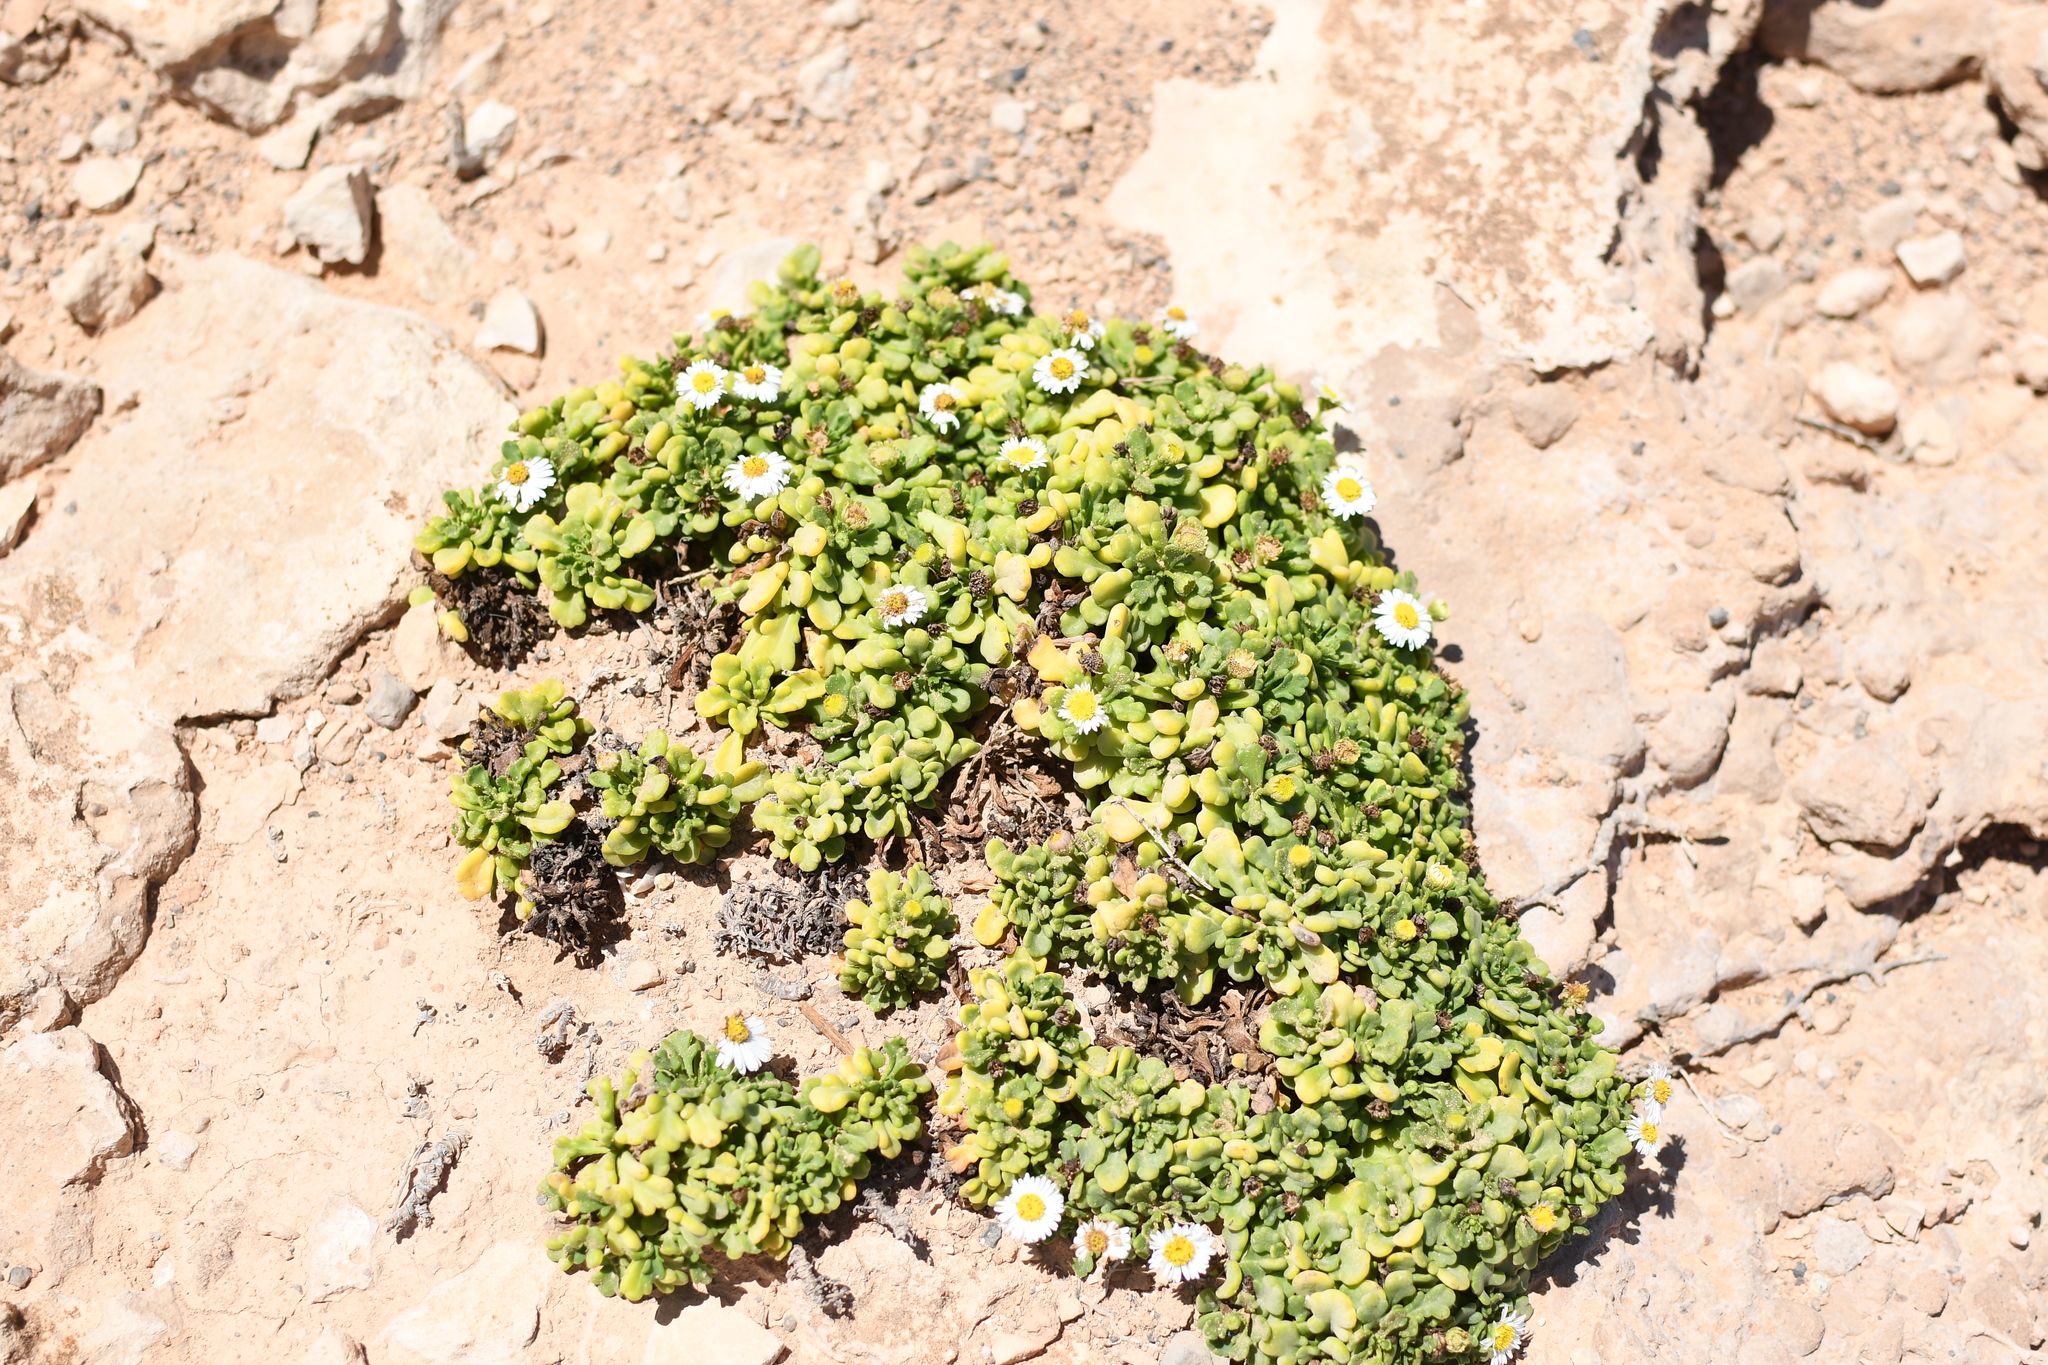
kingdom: Plantae
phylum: Tracheophyta
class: Magnoliopsida
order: Asterales
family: Asteraceae
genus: Brachyscome
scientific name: Brachyscome tatei
